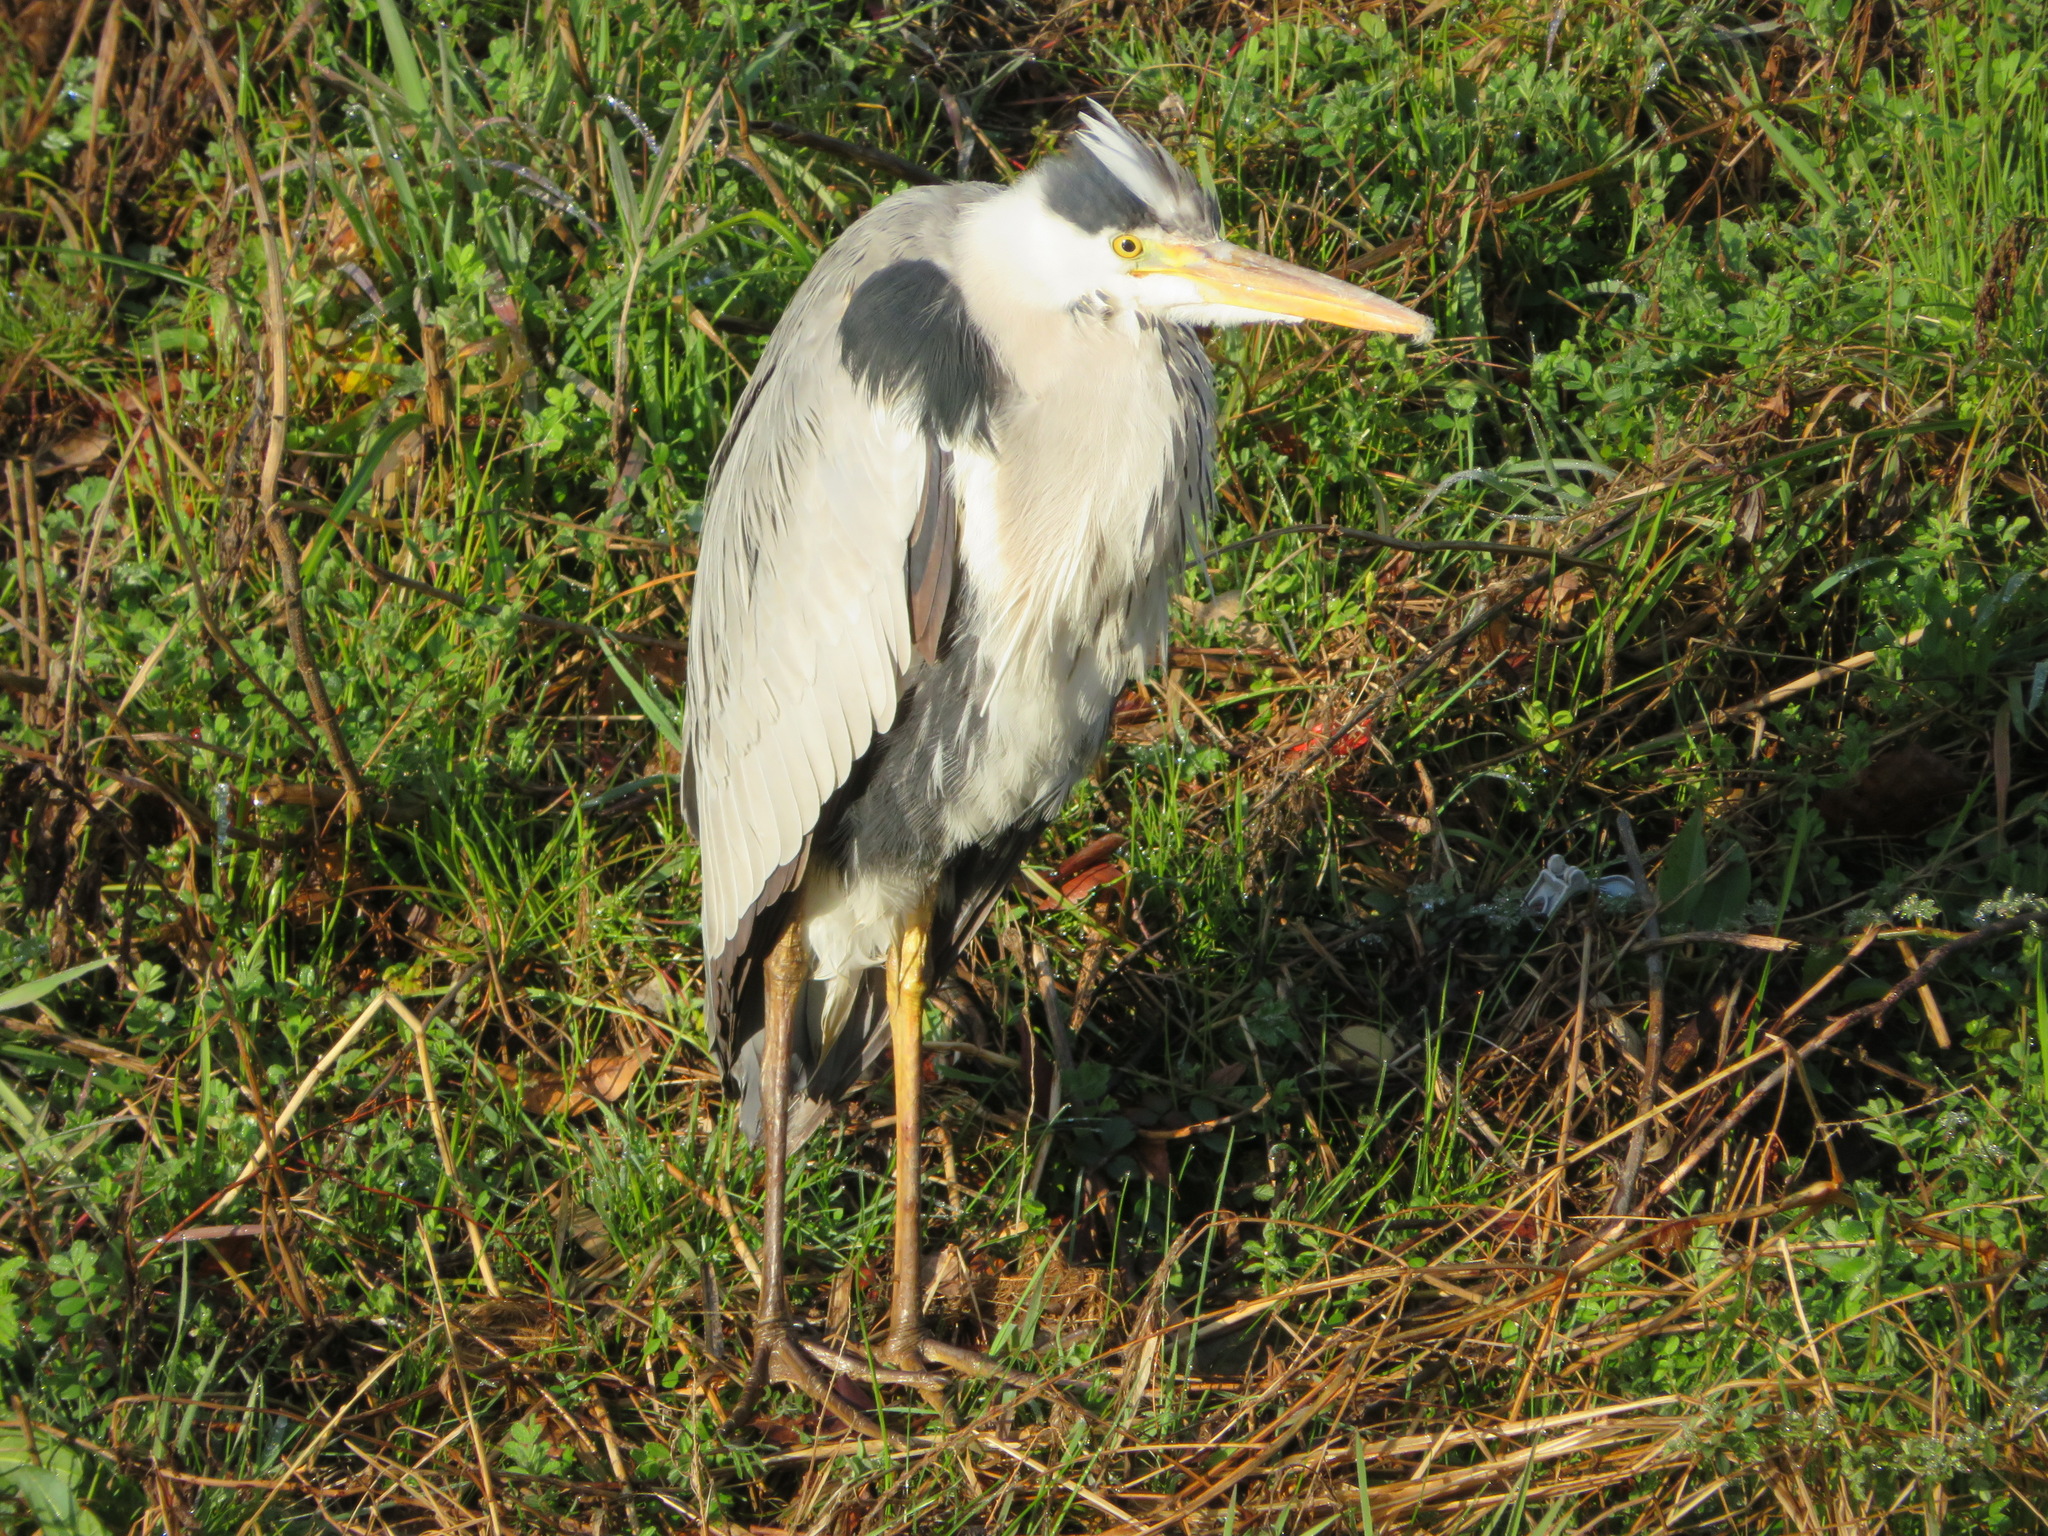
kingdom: Animalia
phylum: Chordata
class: Aves
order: Pelecaniformes
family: Ardeidae
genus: Ardea
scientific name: Ardea cinerea
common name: Grey heron
